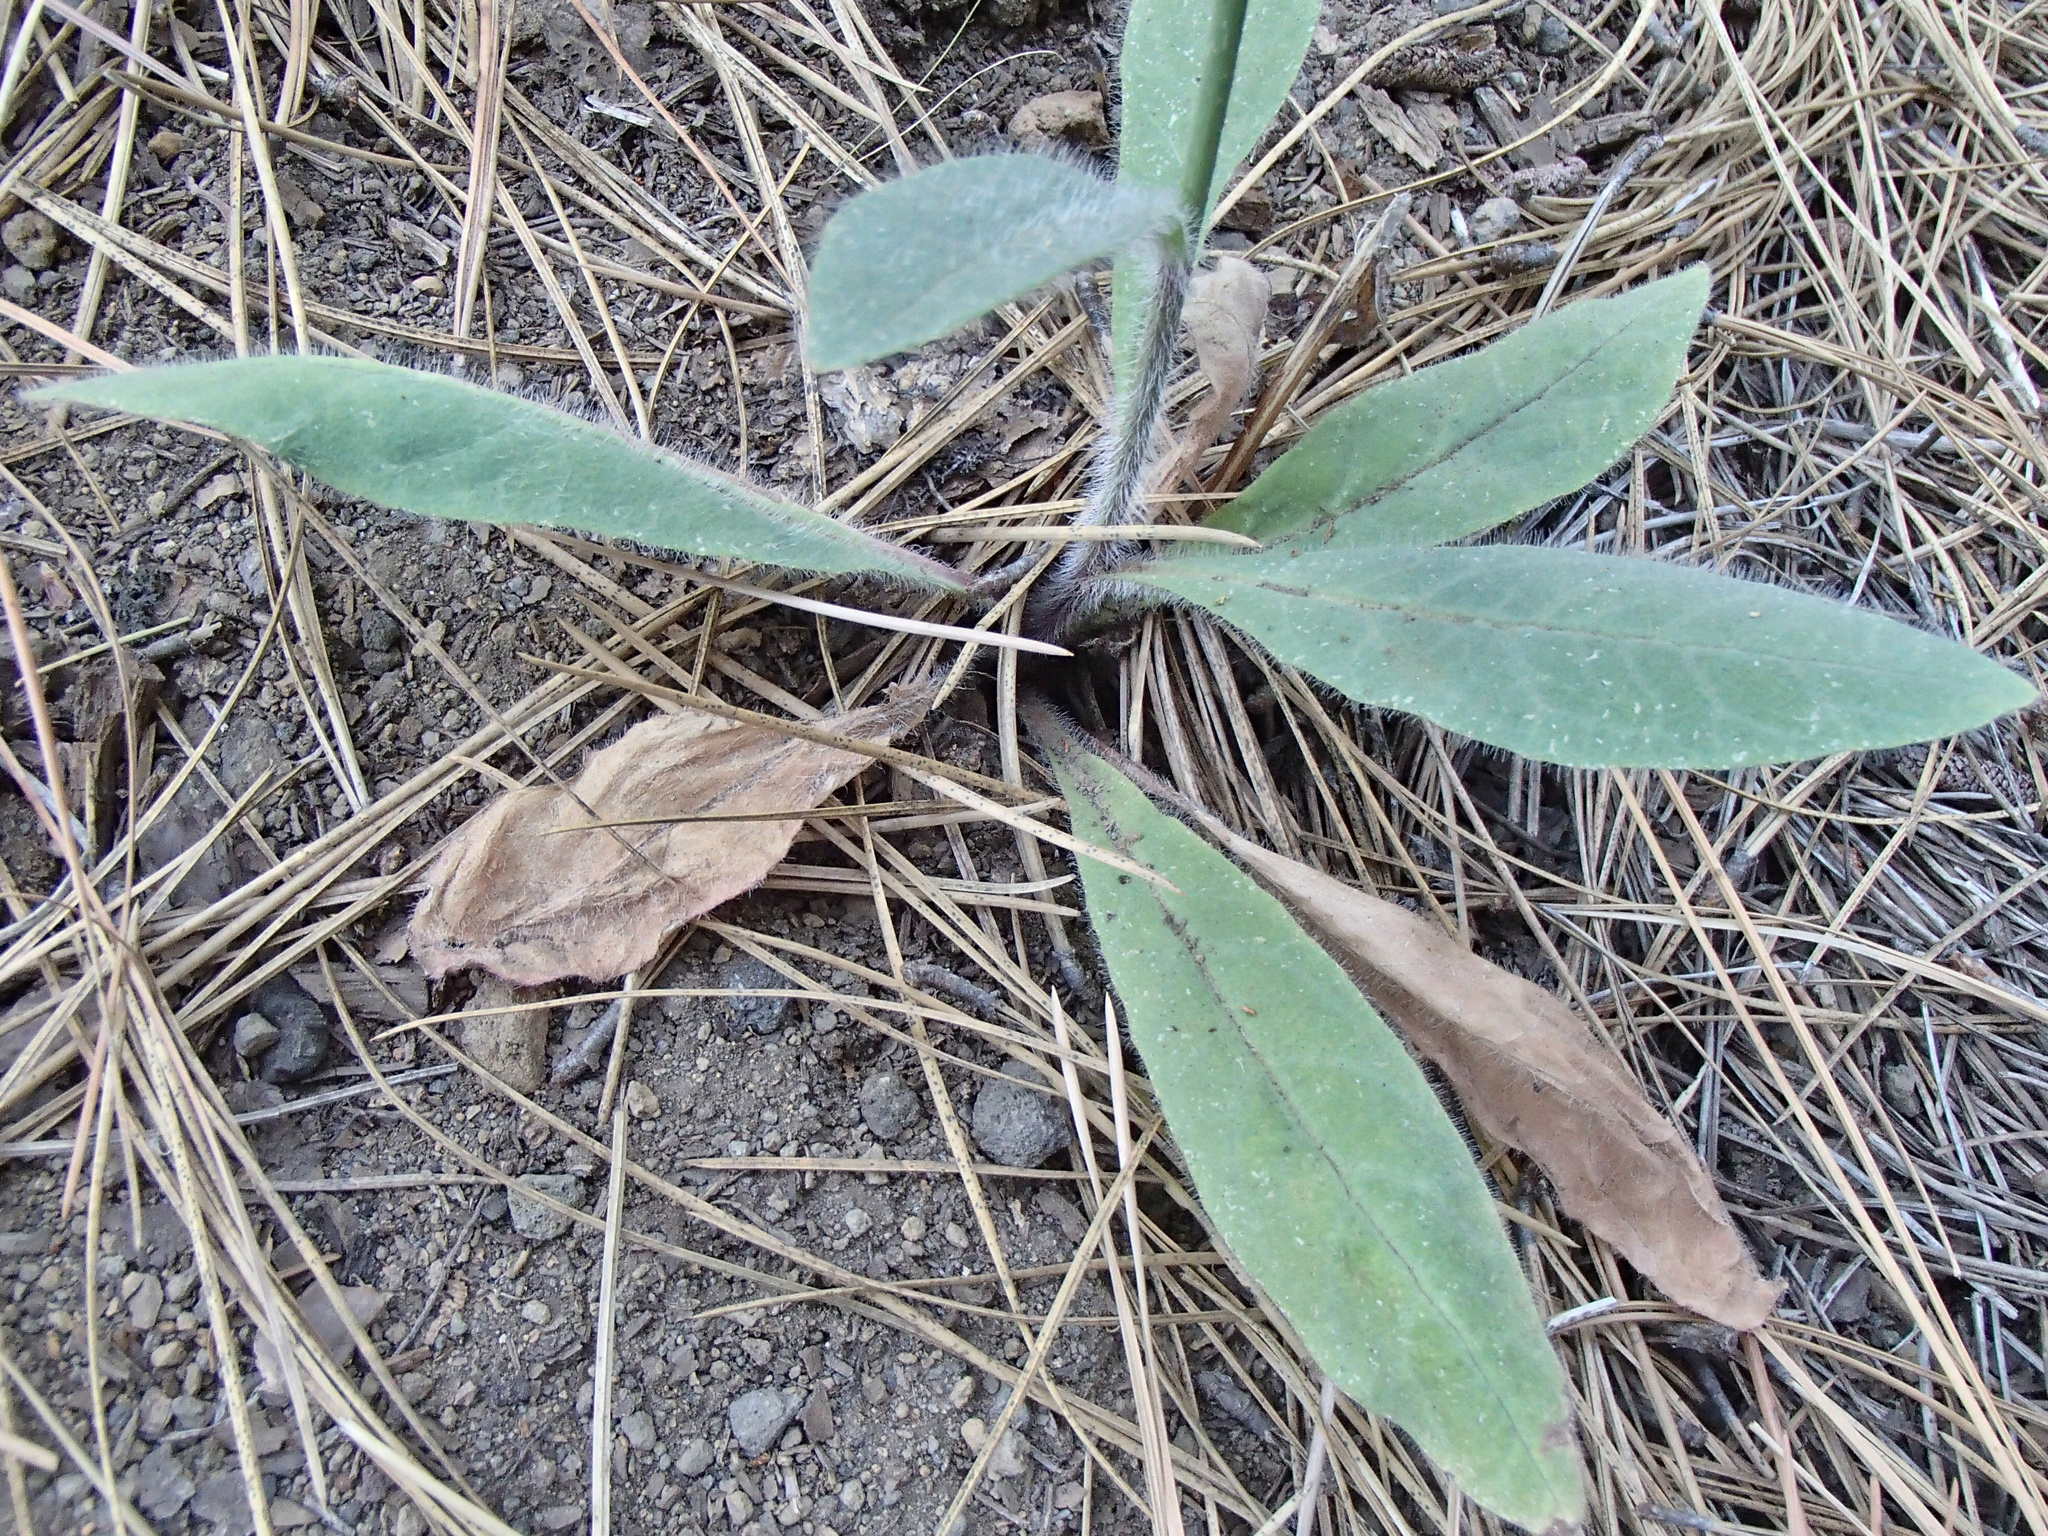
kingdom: Plantae
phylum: Tracheophyta
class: Magnoliopsida
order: Asterales
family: Asteraceae
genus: Hieracium
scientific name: Hieracium albiflorum
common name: White hawkweed
